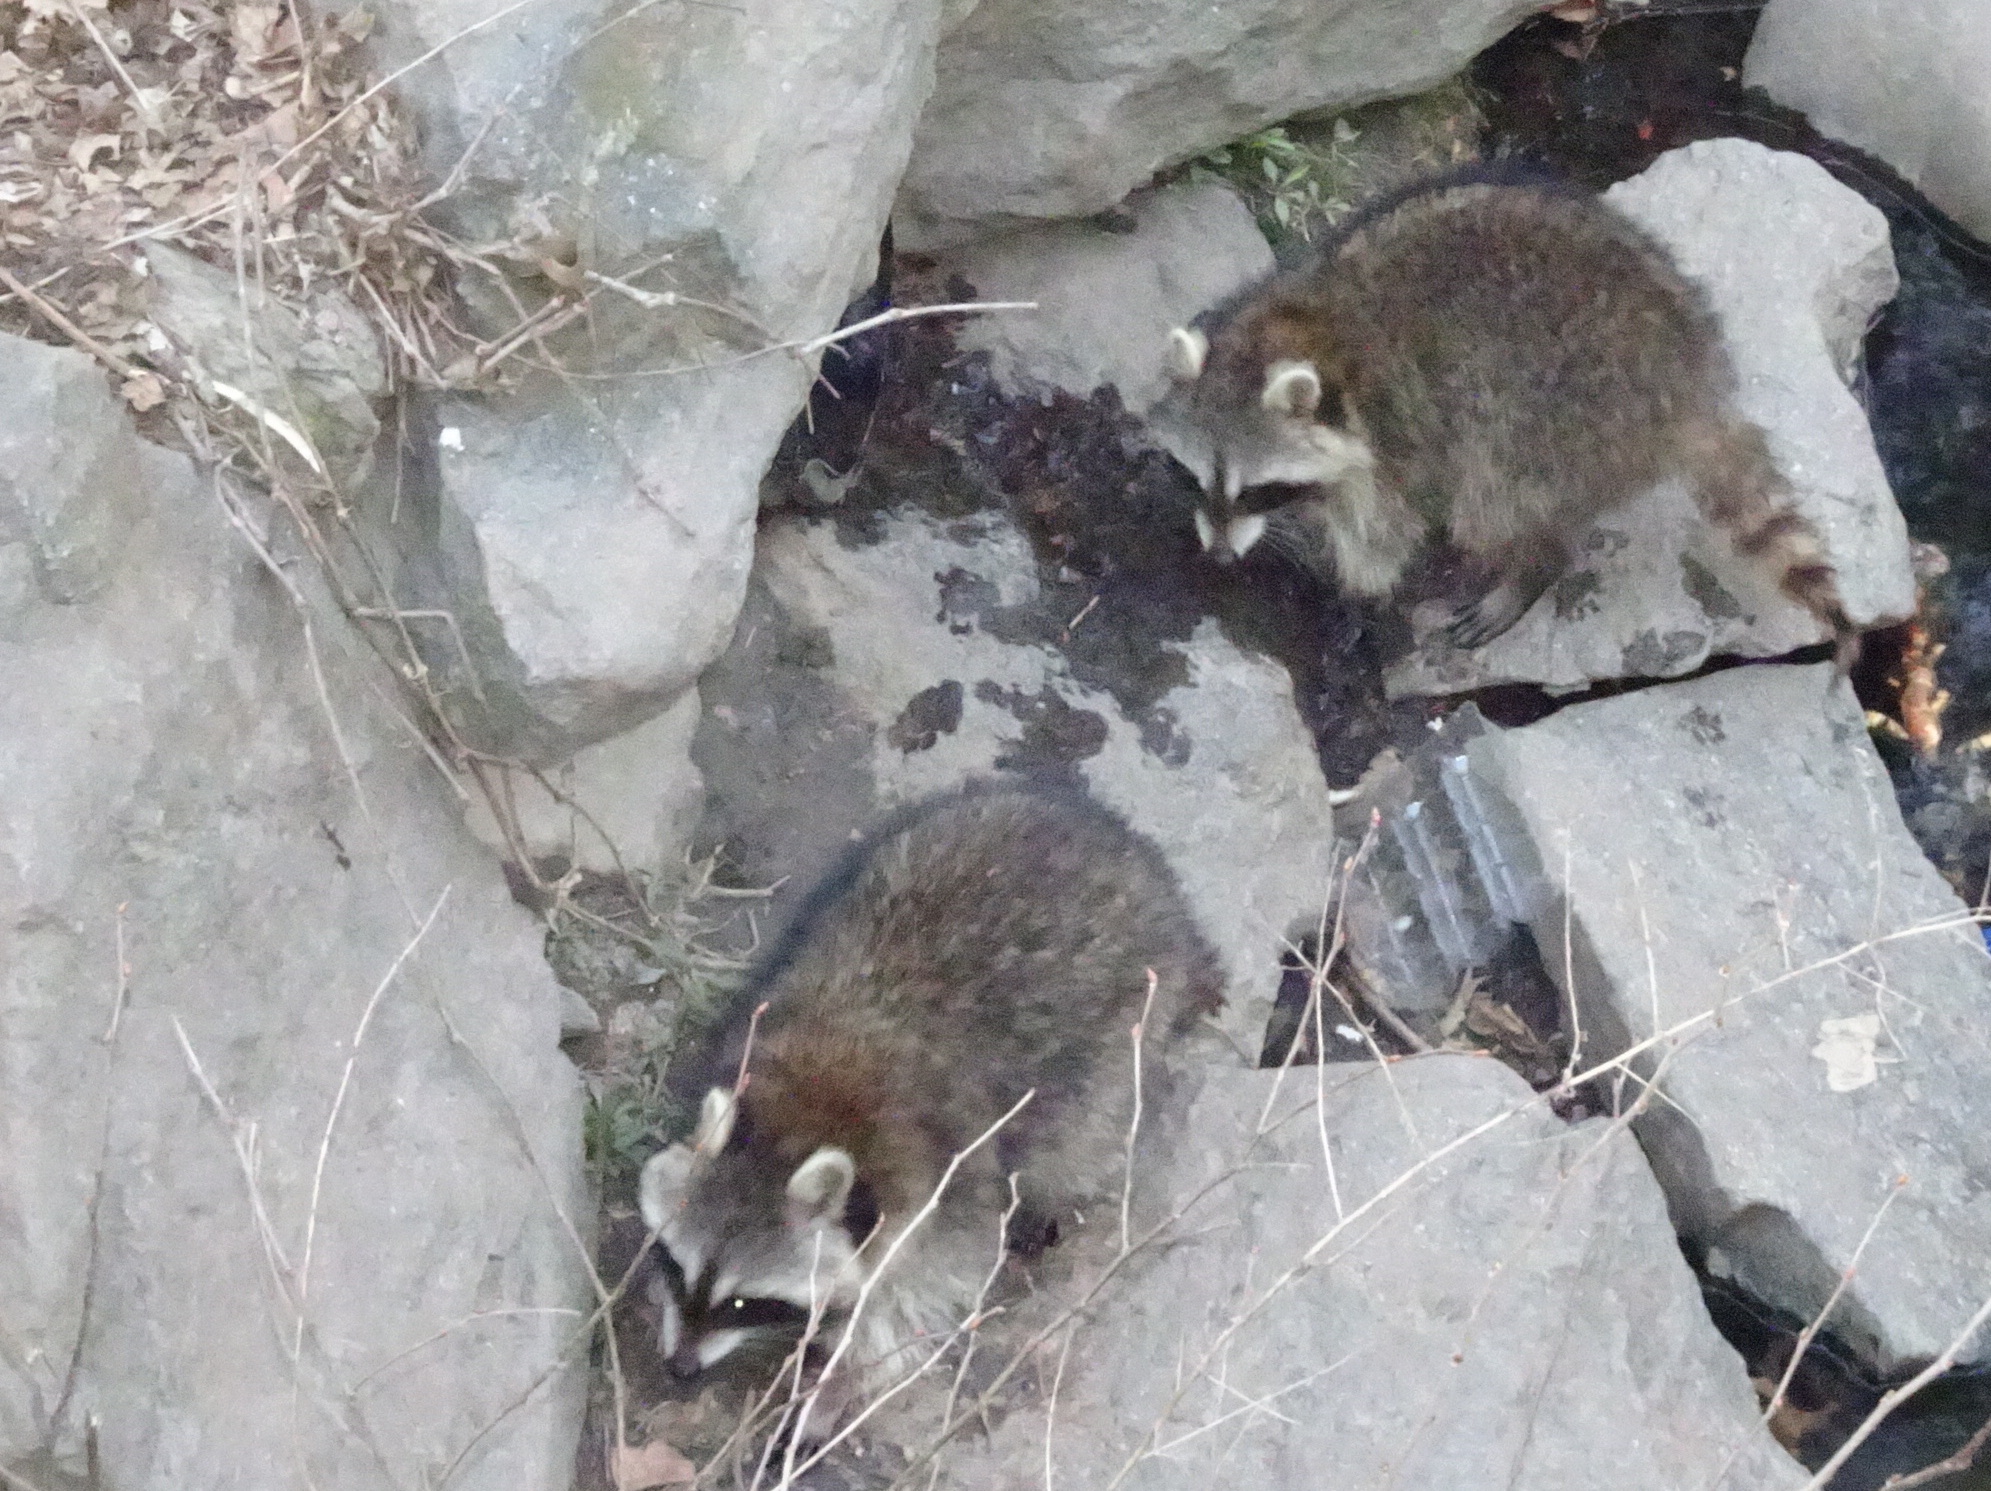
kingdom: Animalia
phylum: Chordata
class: Mammalia
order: Carnivora
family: Procyonidae
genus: Procyon
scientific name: Procyon lotor
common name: Raccoon
